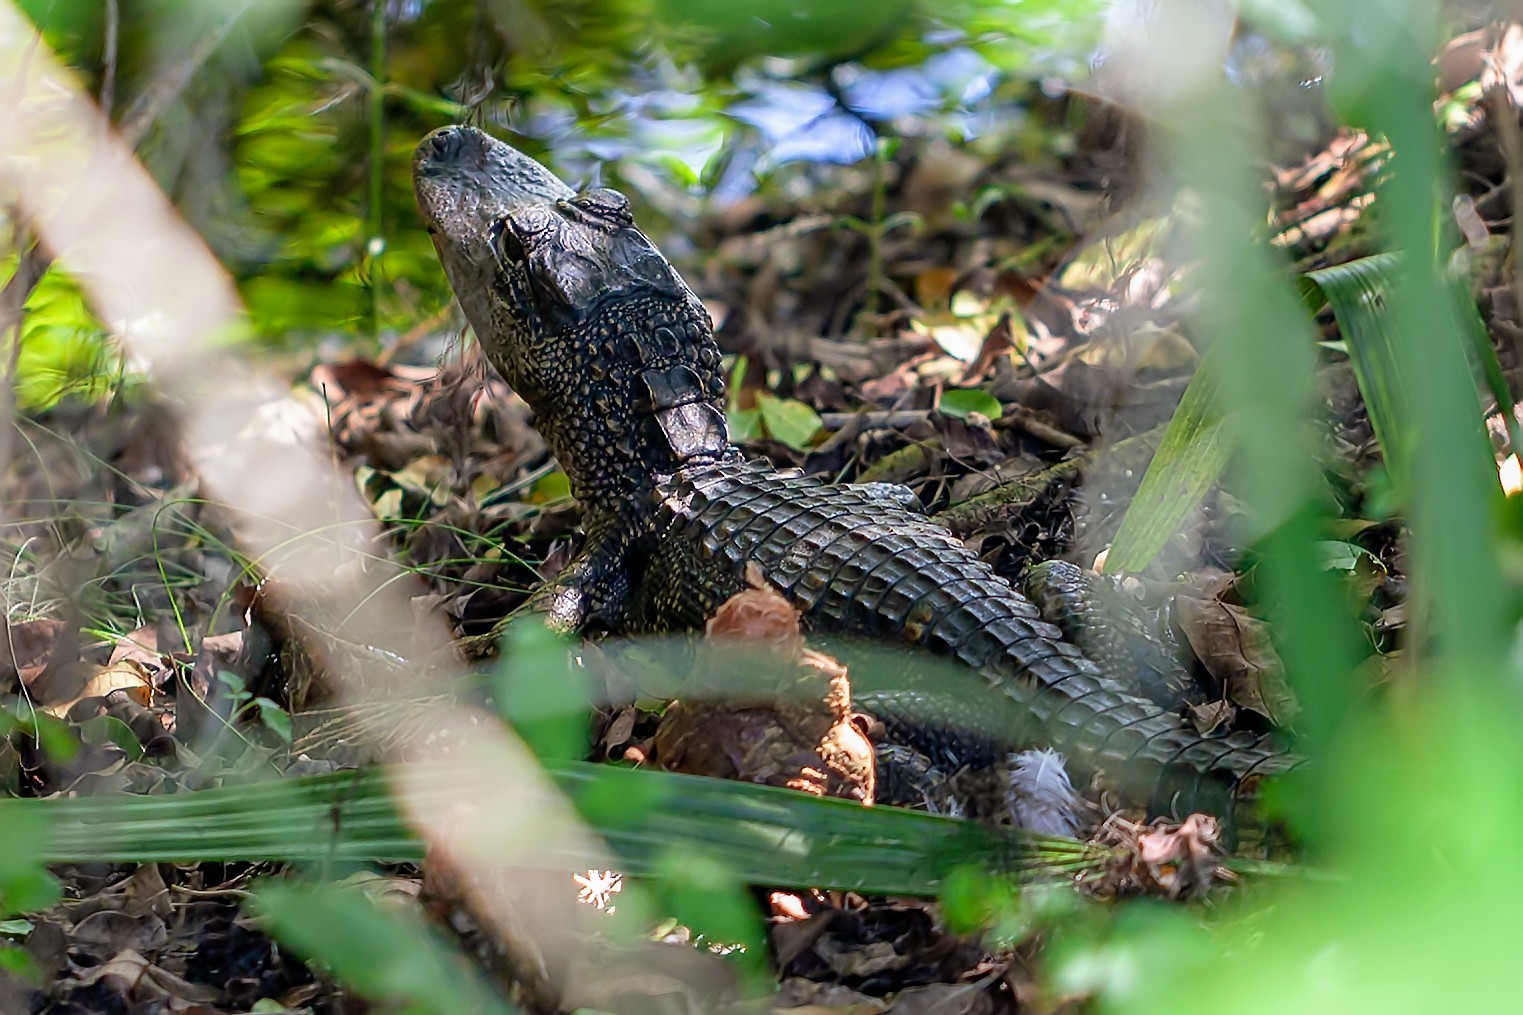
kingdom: Animalia
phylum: Chordata
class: Crocodylia
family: Alligatoridae
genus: Alligator
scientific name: Alligator mississippiensis
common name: American alligator
